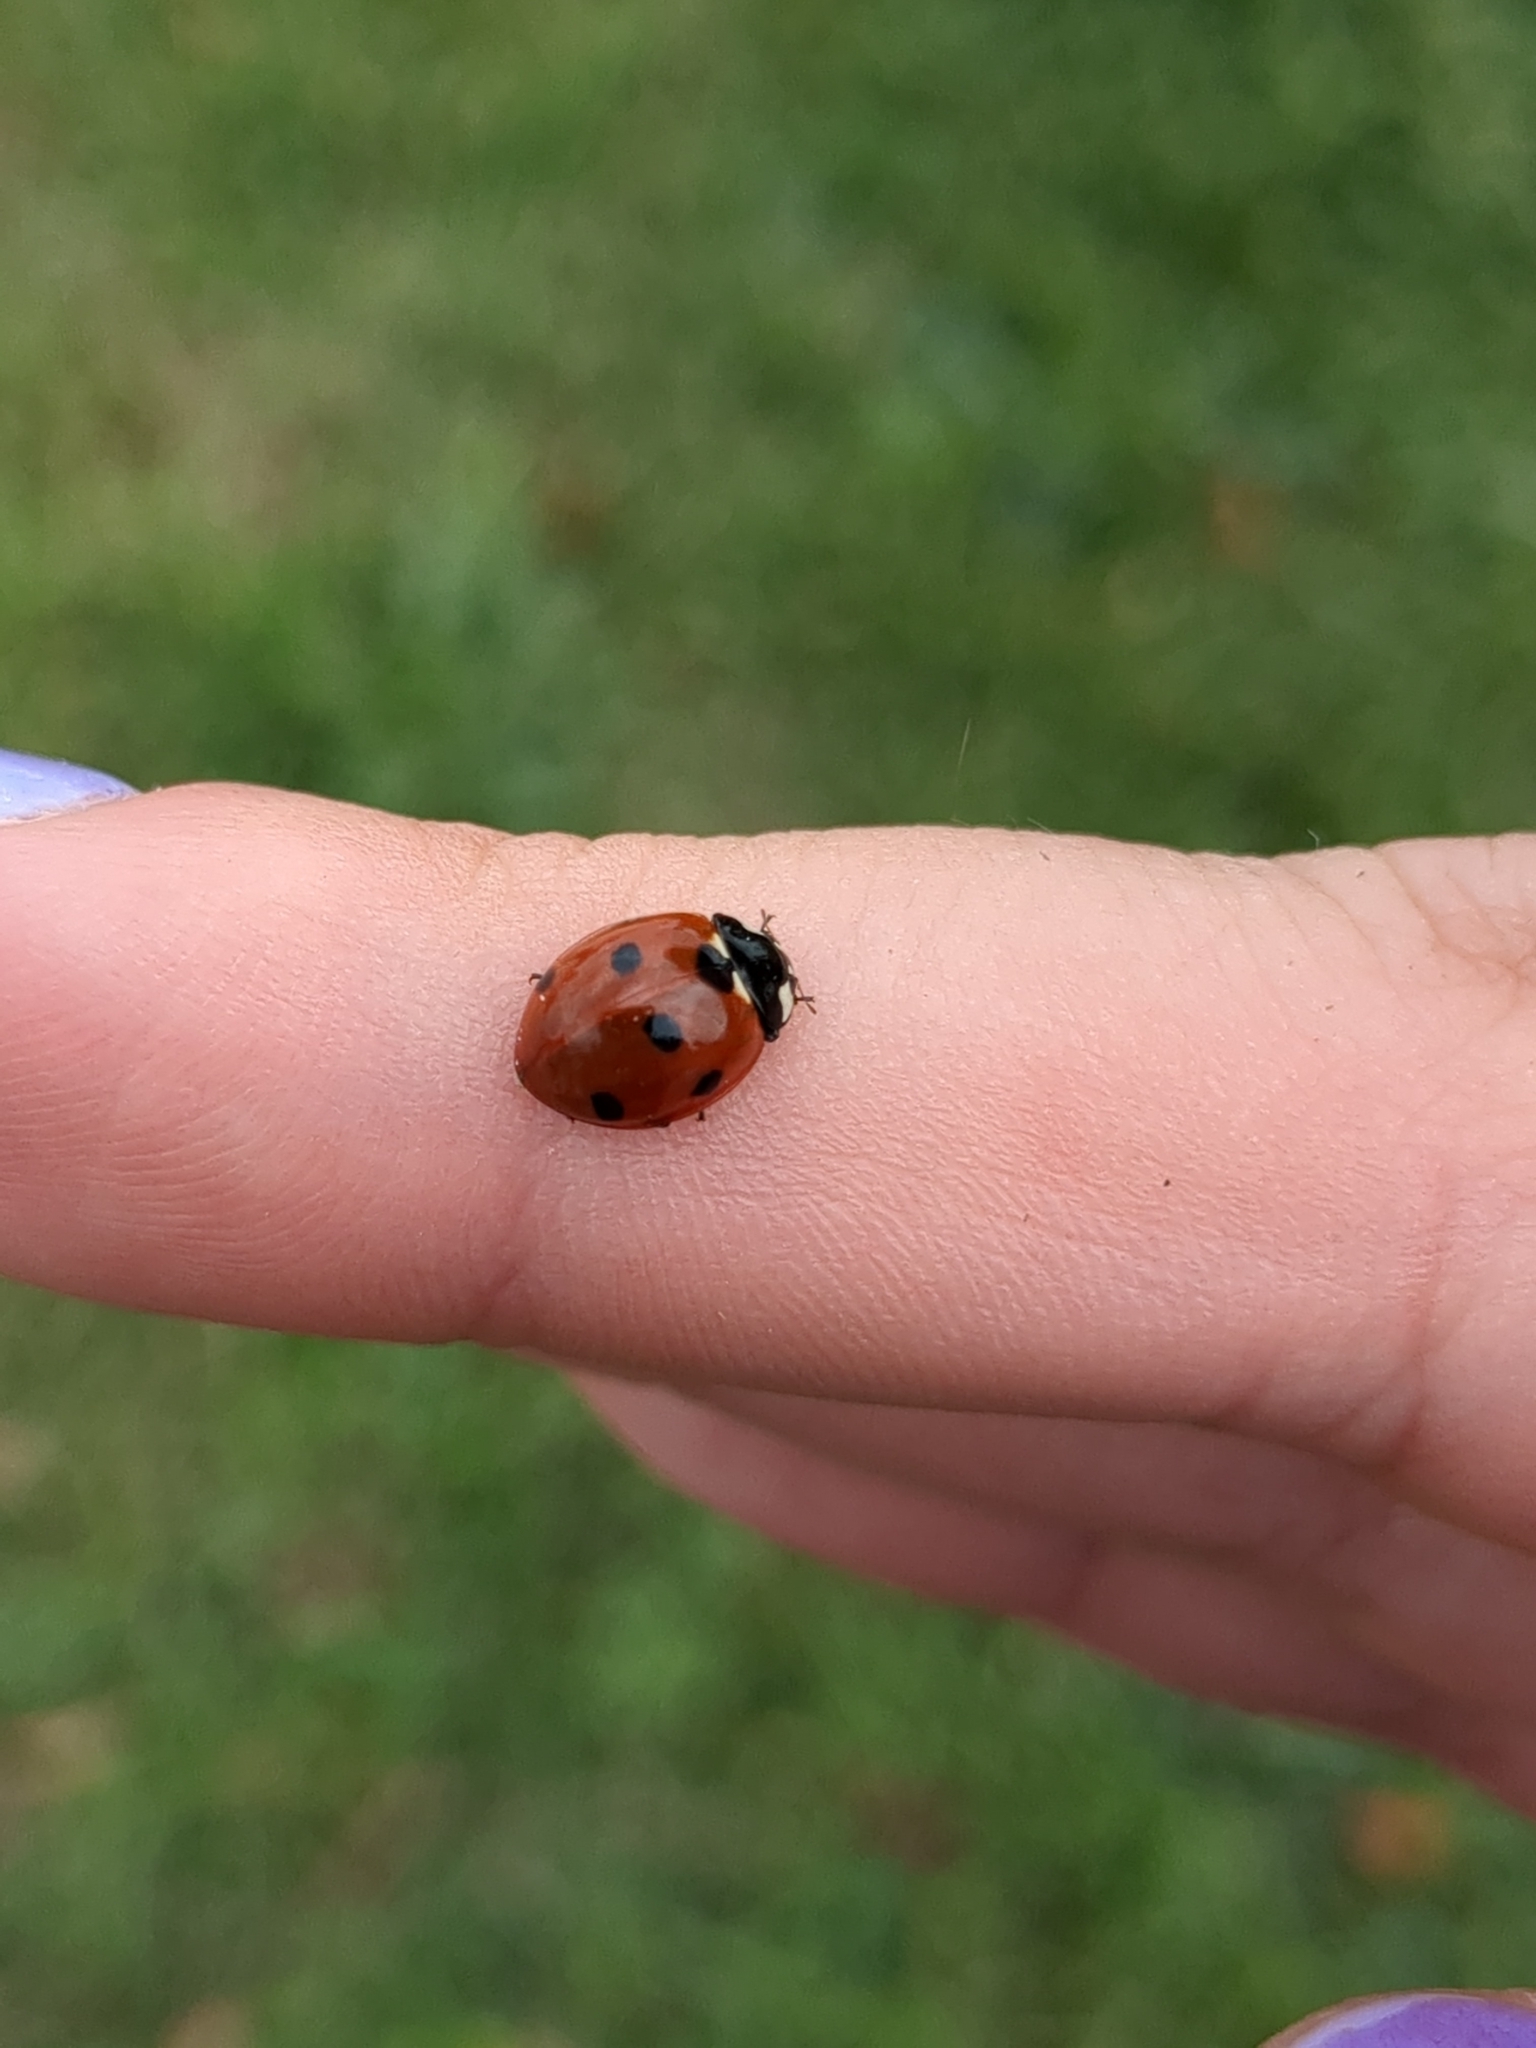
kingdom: Animalia
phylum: Arthropoda
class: Insecta
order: Coleoptera
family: Coccinellidae
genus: Coccinella
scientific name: Coccinella septempunctata
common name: Sevenspotted lady beetle
